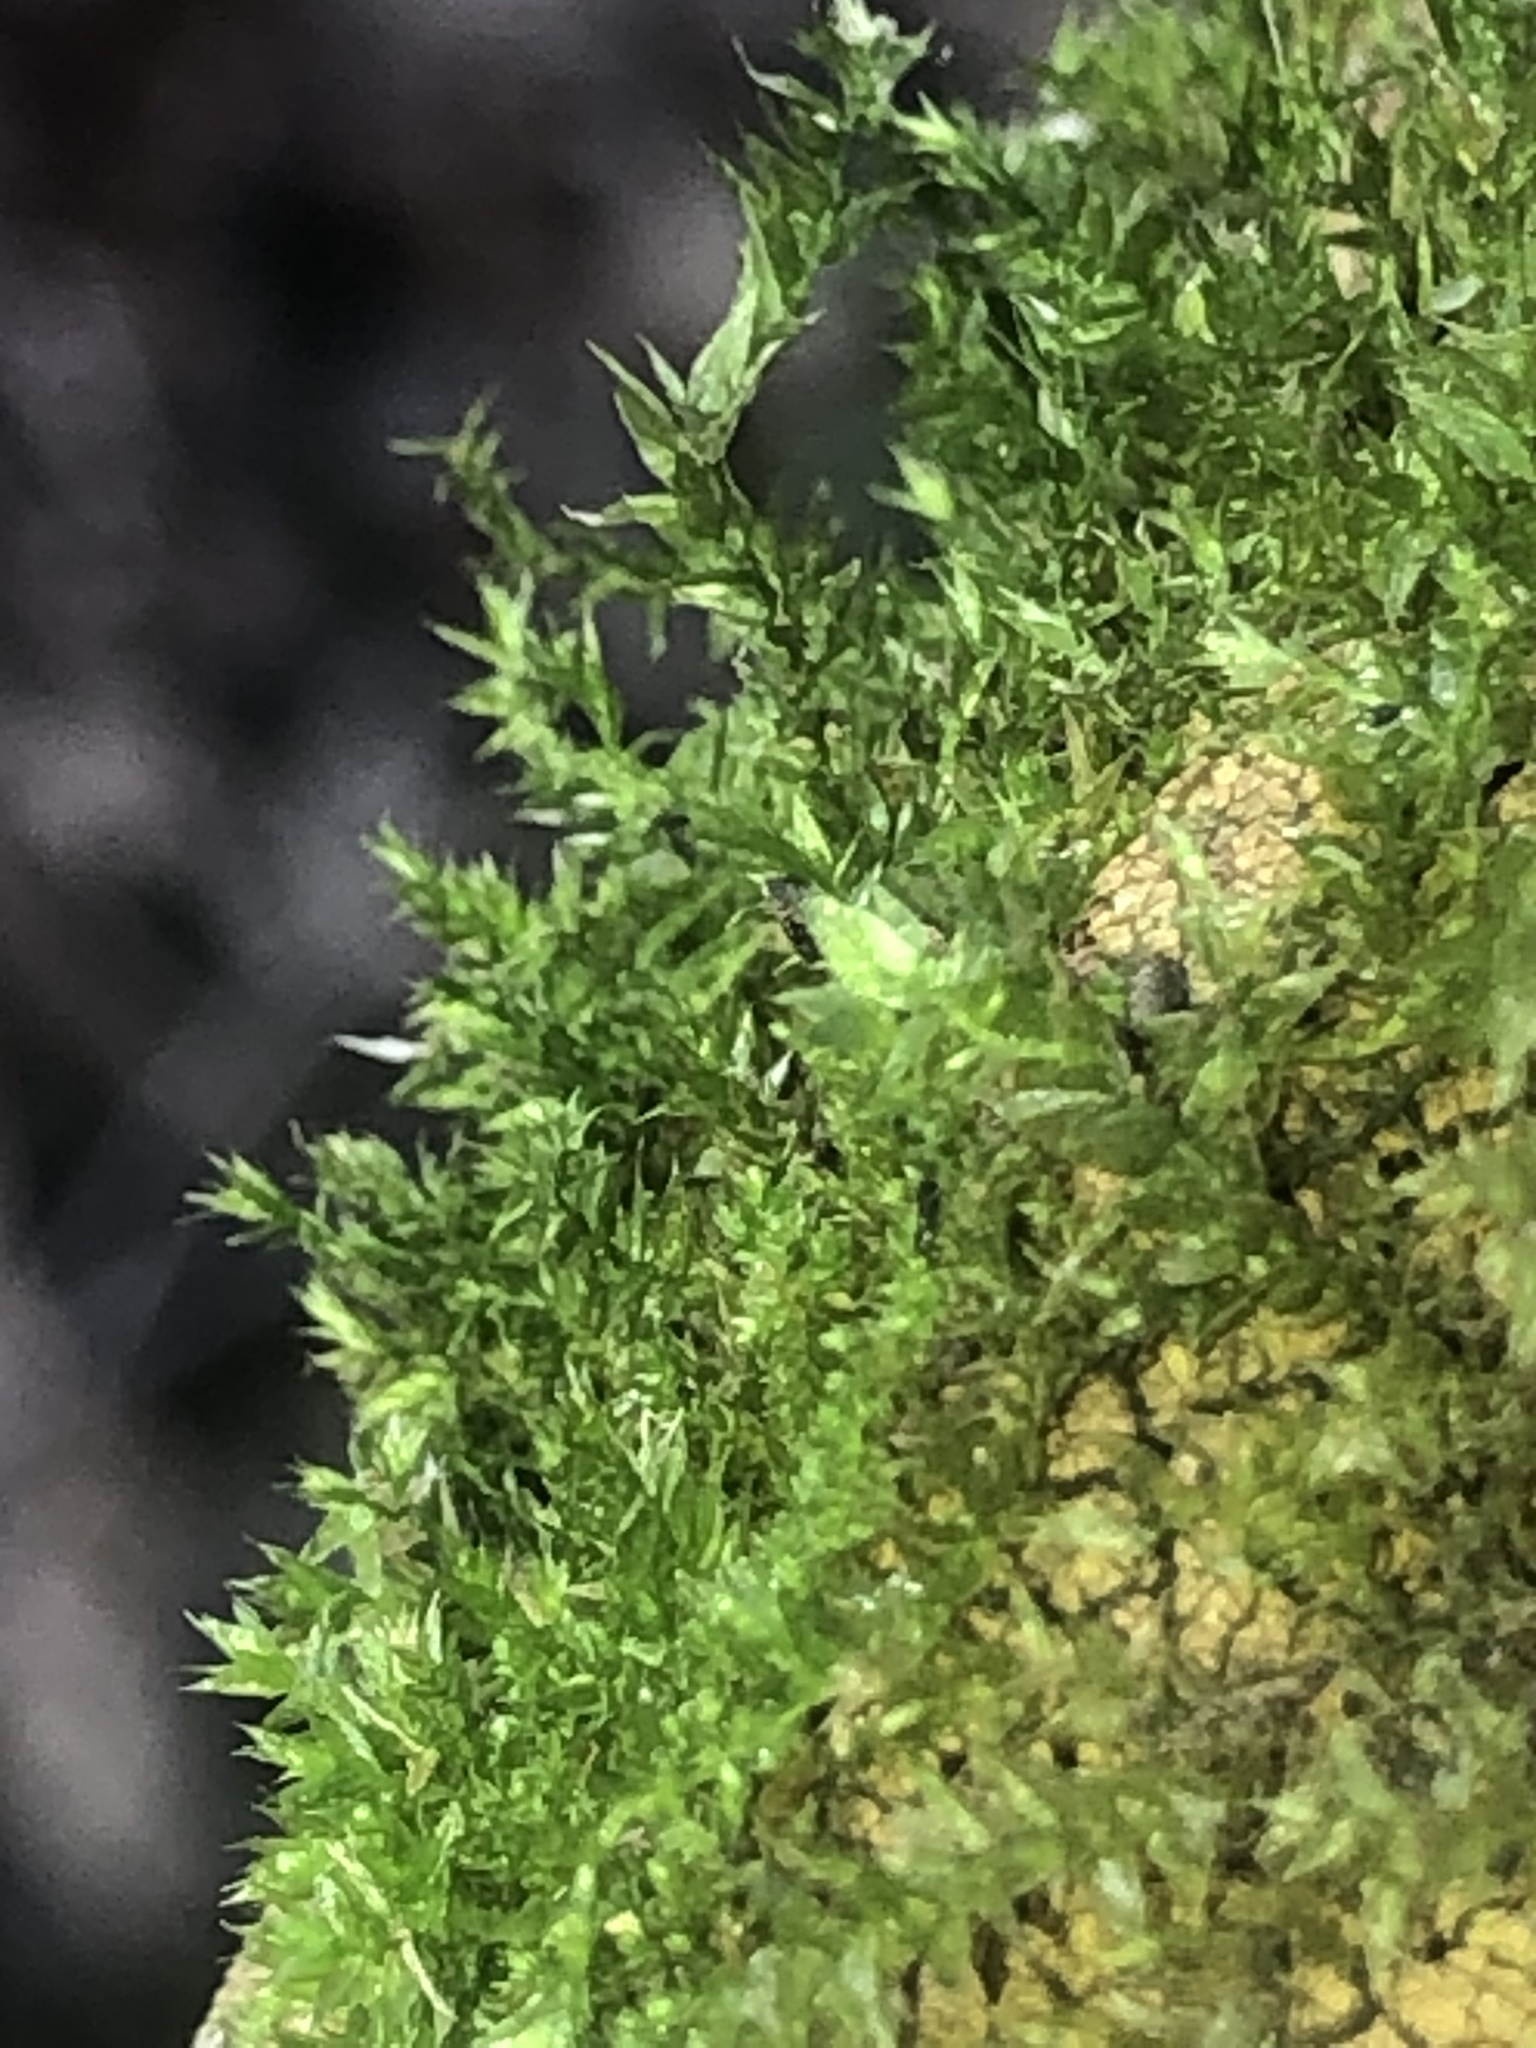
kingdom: Plantae
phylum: Bryophyta
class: Bryopsida
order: Hypnales
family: Amblystegiaceae
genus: Hygroamblystegium
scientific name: Hygroamblystegium varium
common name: Willow feather-moss
